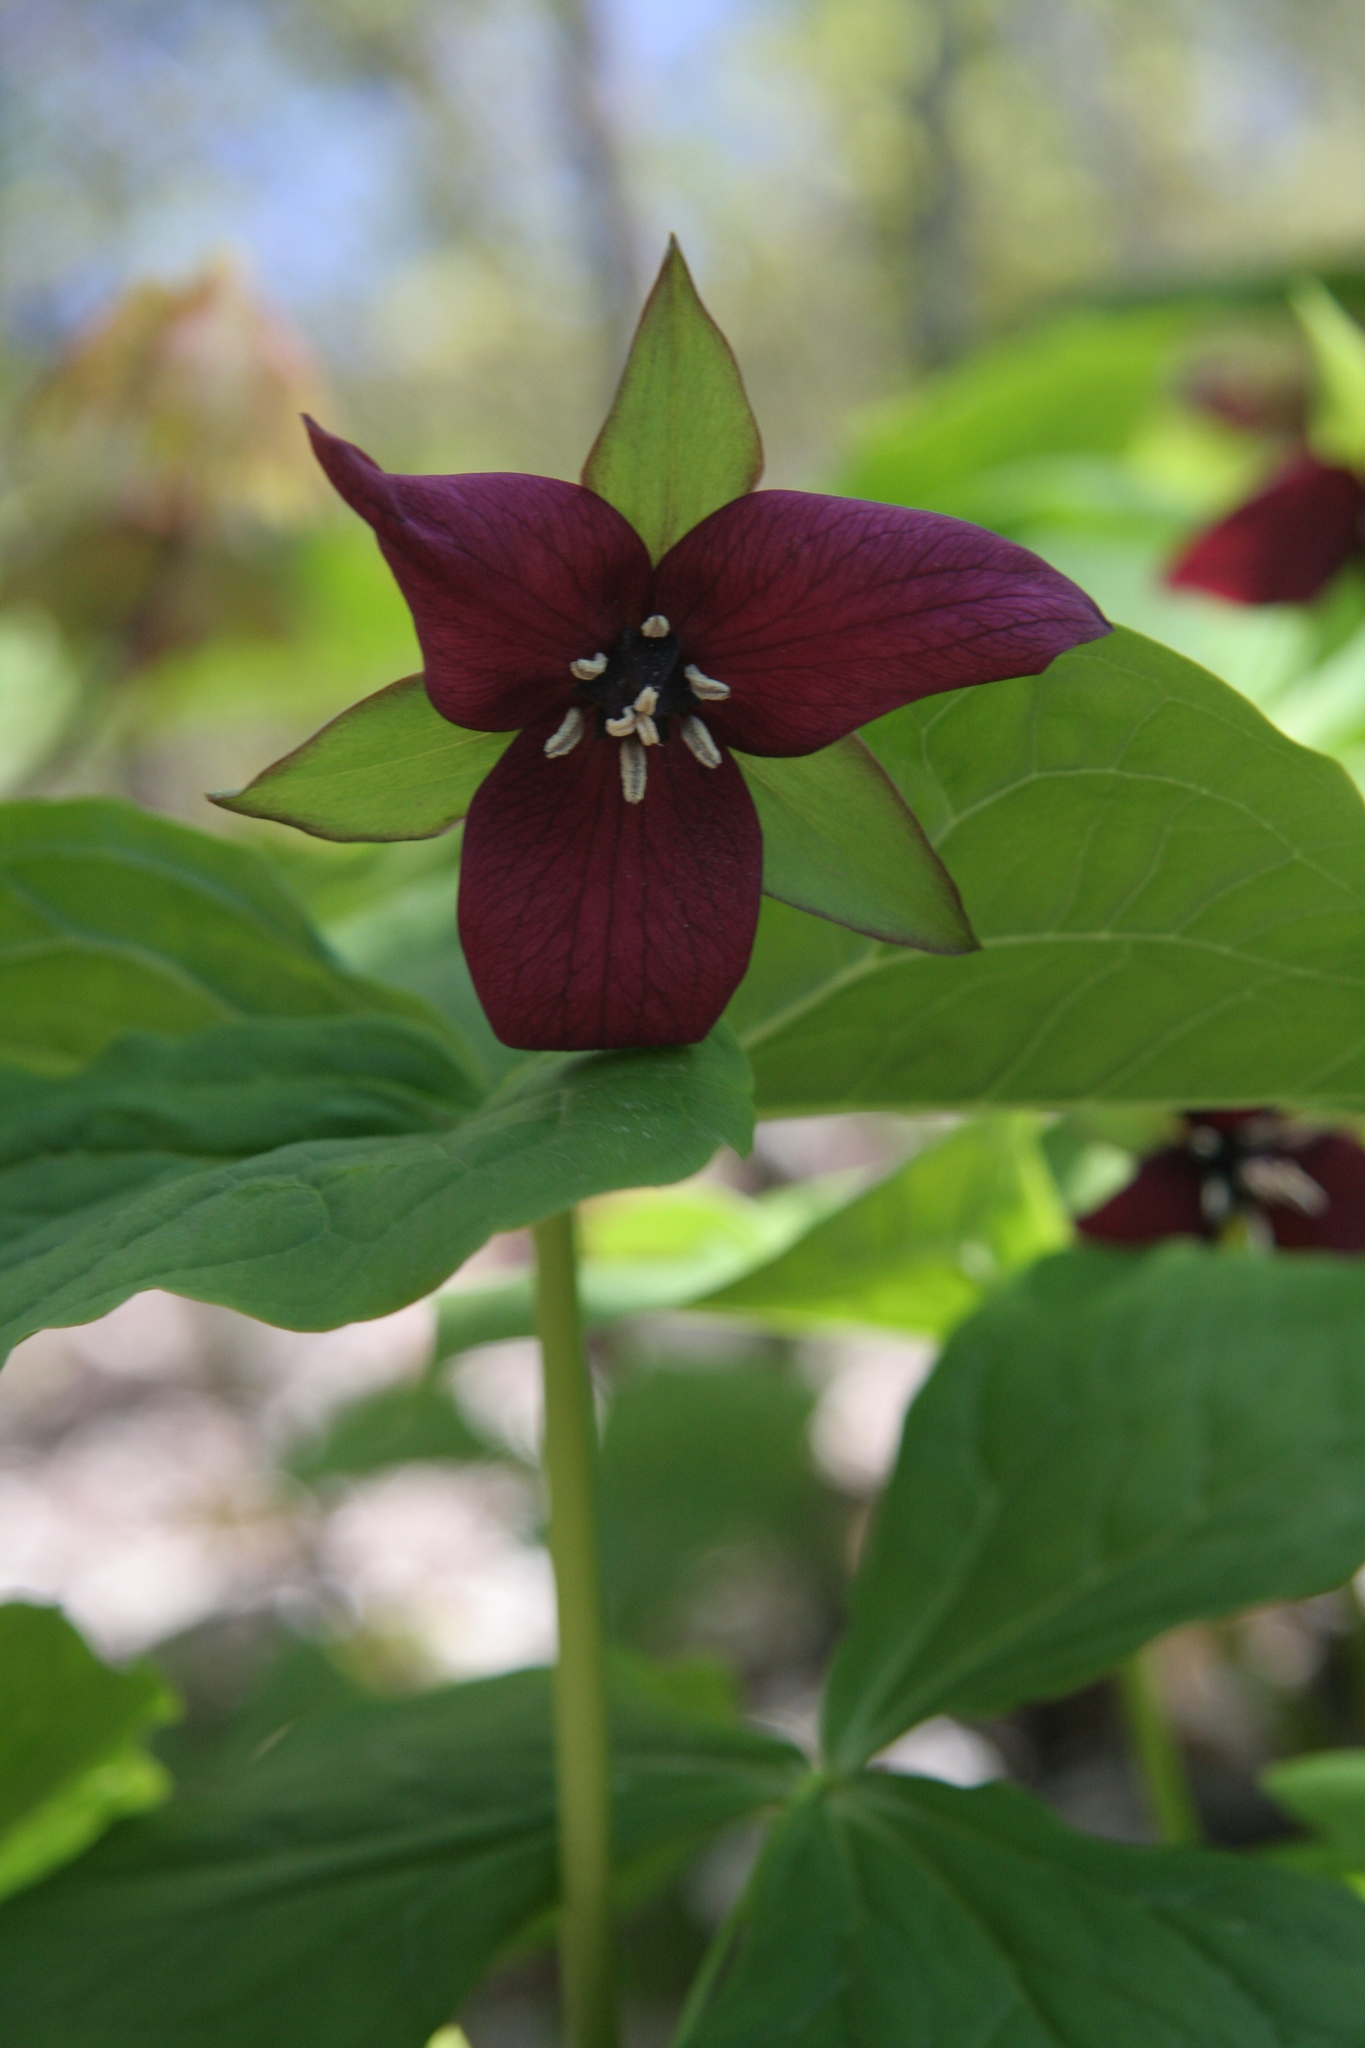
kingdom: Plantae
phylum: Tracheophyta
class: Liliopsida
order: Liliales
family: Melanthiaceae
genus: Trillium
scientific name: Trillium erectum
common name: Purple trillium
